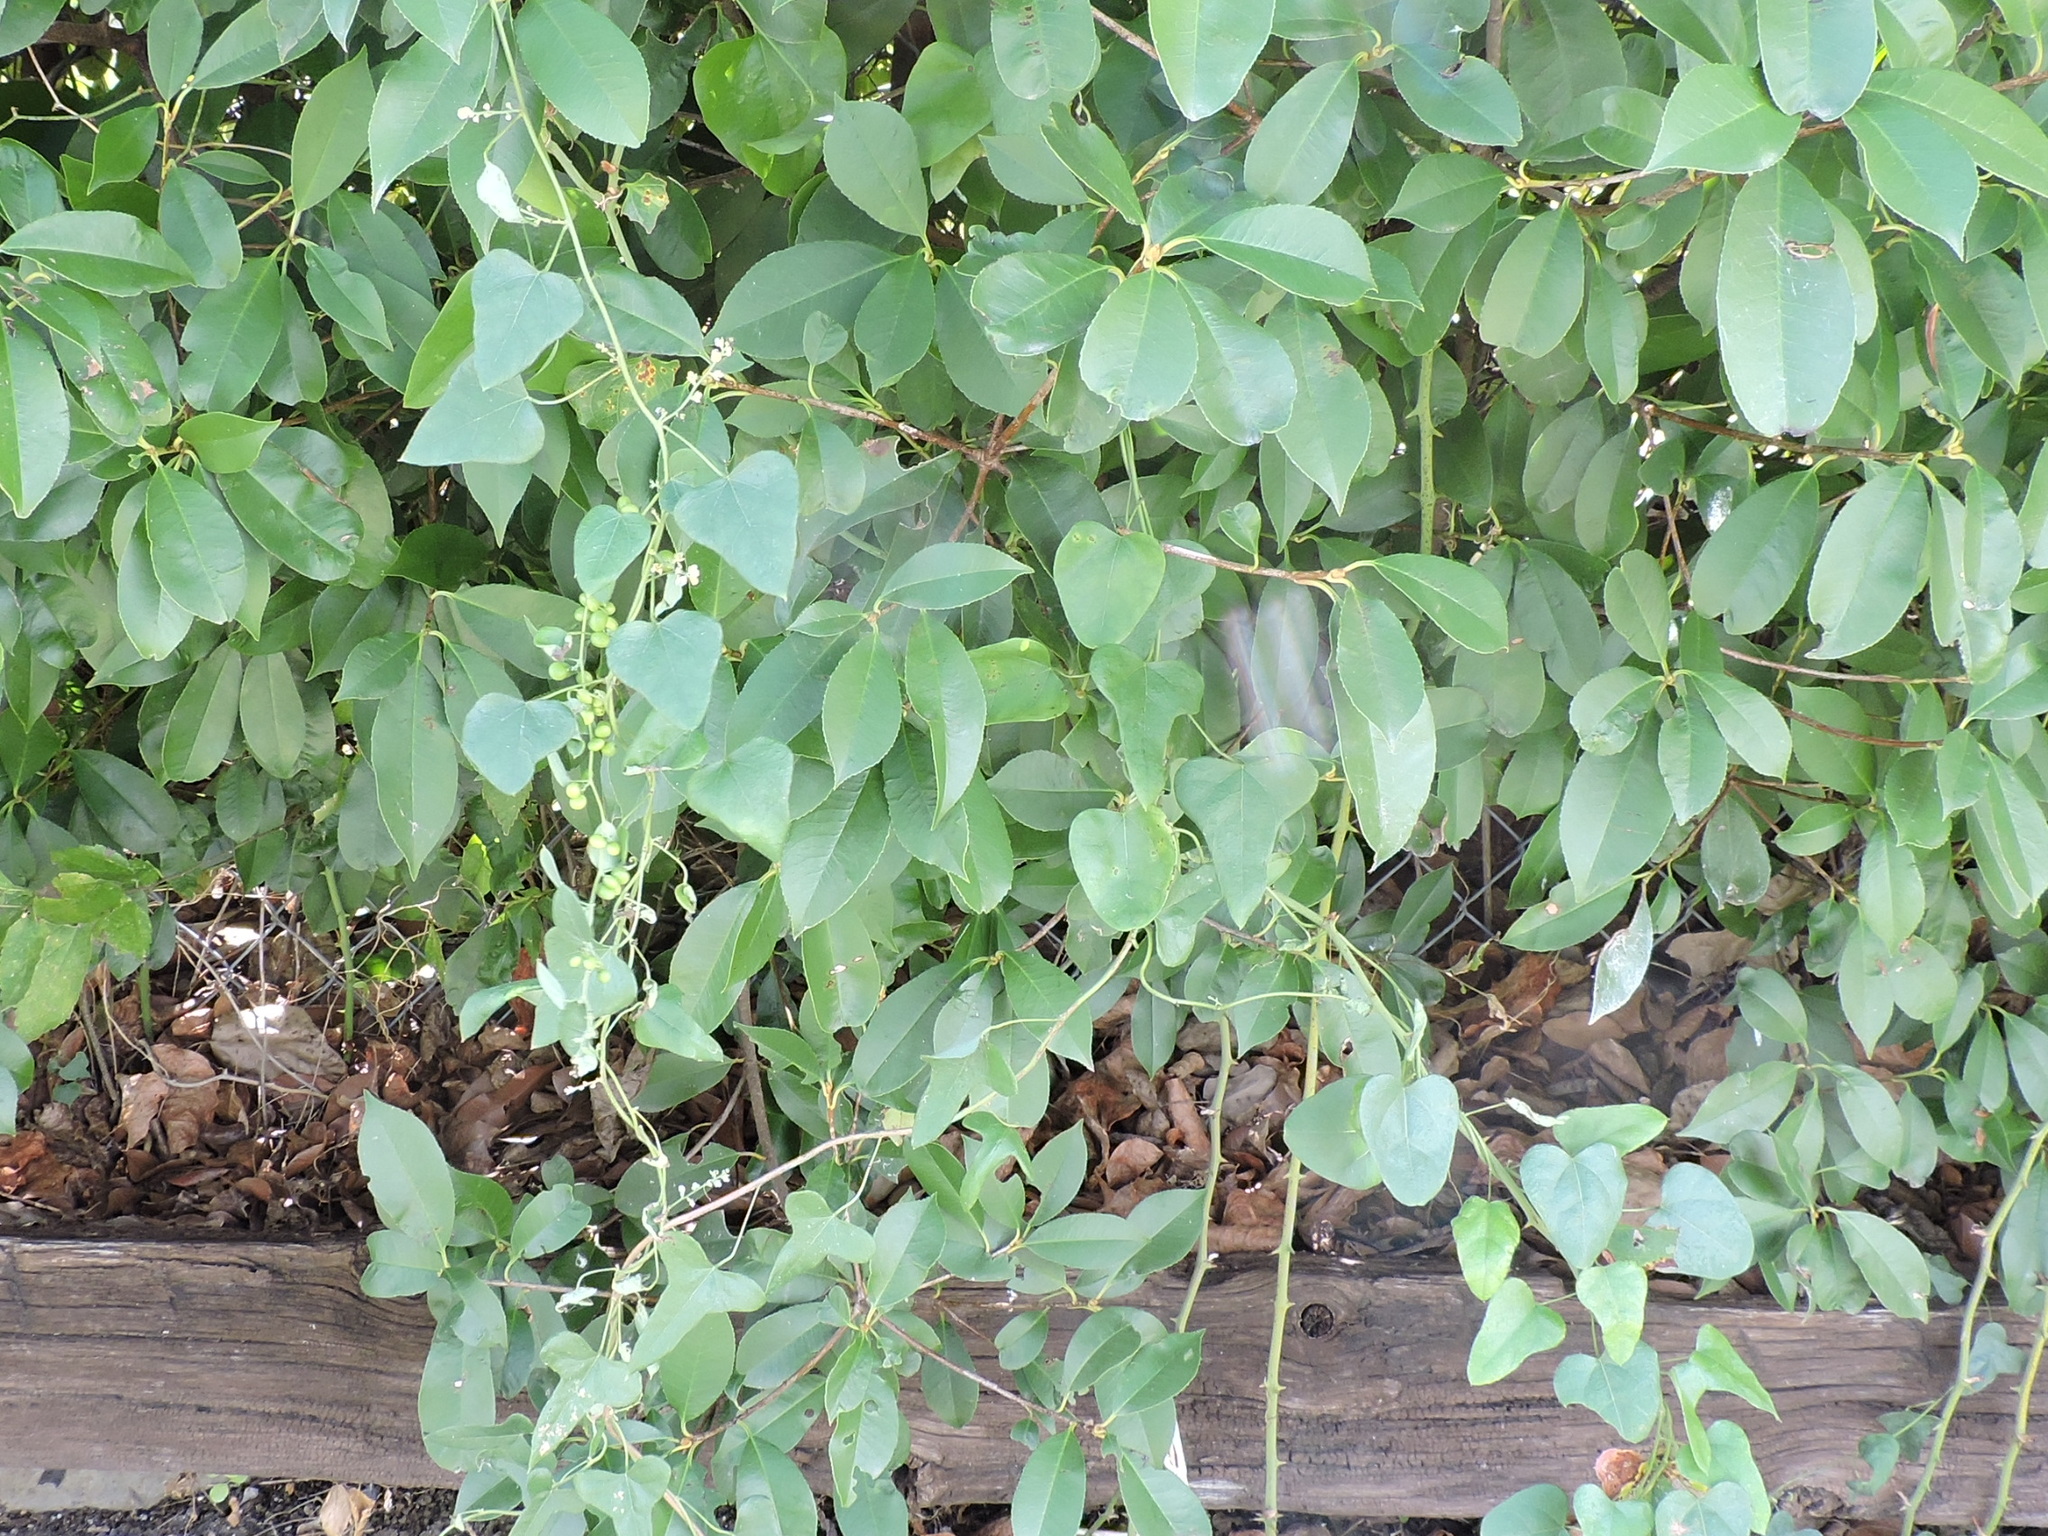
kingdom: Plantae
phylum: Tracheophyta
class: Magnoliopsida
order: Ranunculales
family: Menispermaceae
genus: Cocculus
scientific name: Cocculus carolinus
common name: Carolina moonseed
